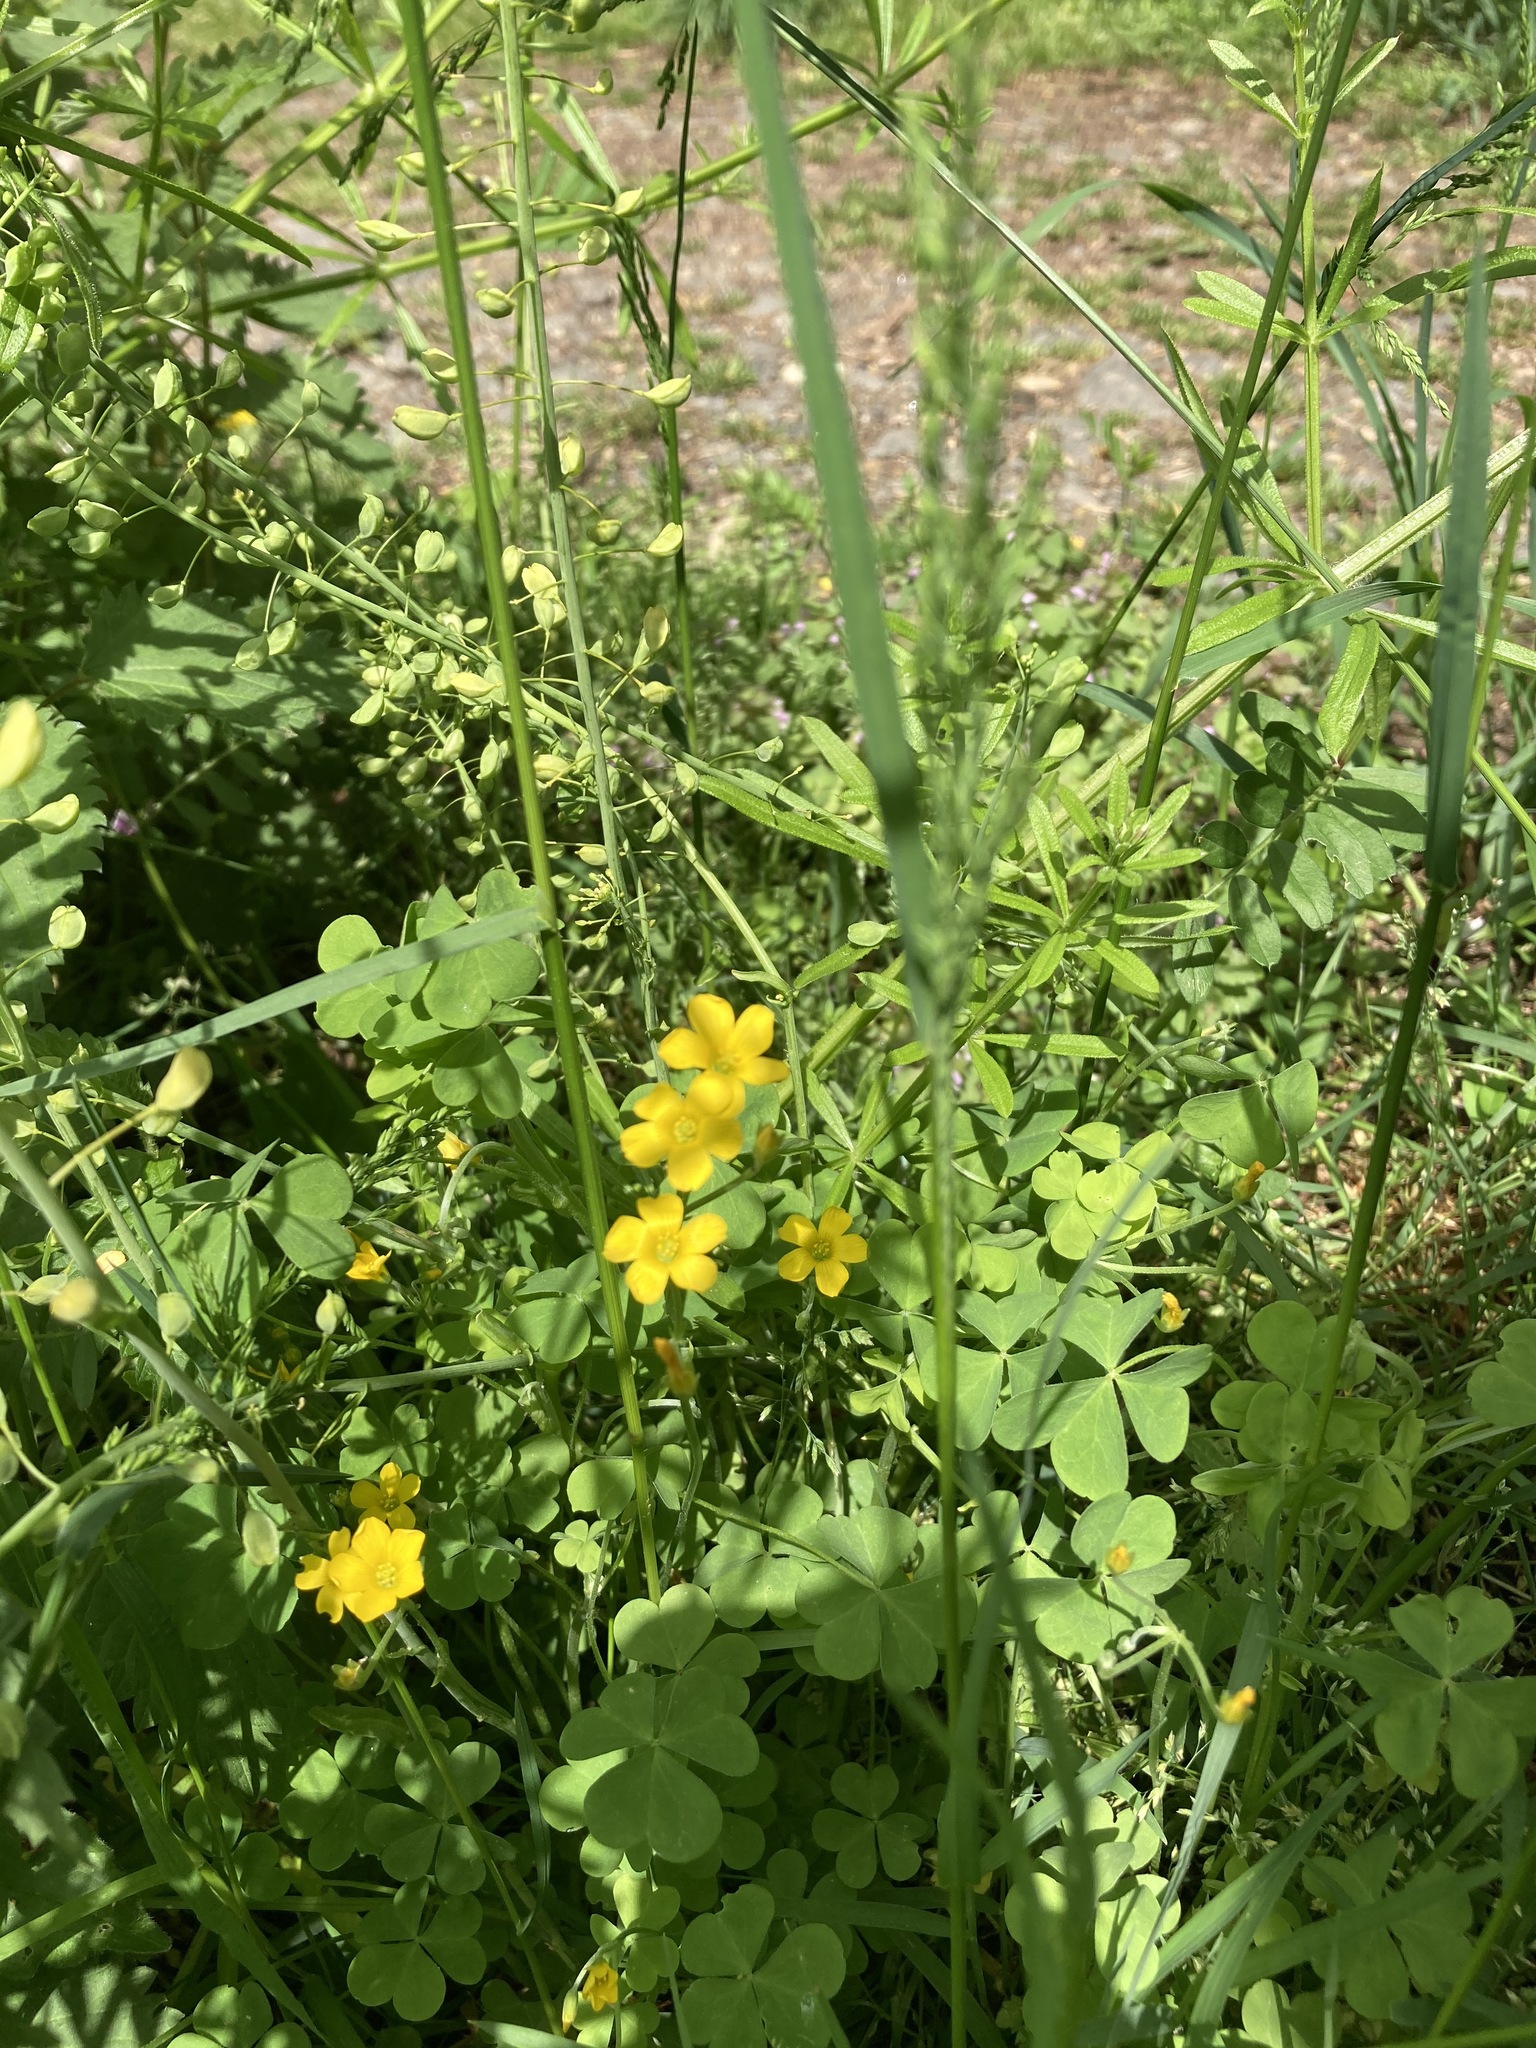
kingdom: Plantae
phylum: Tracheophyta
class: Magnoliopsida
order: Oxalidales
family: Oxalidaceae
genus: Oxalis
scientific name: Oxalis dillenii
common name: Sussex yellow-sorrel
